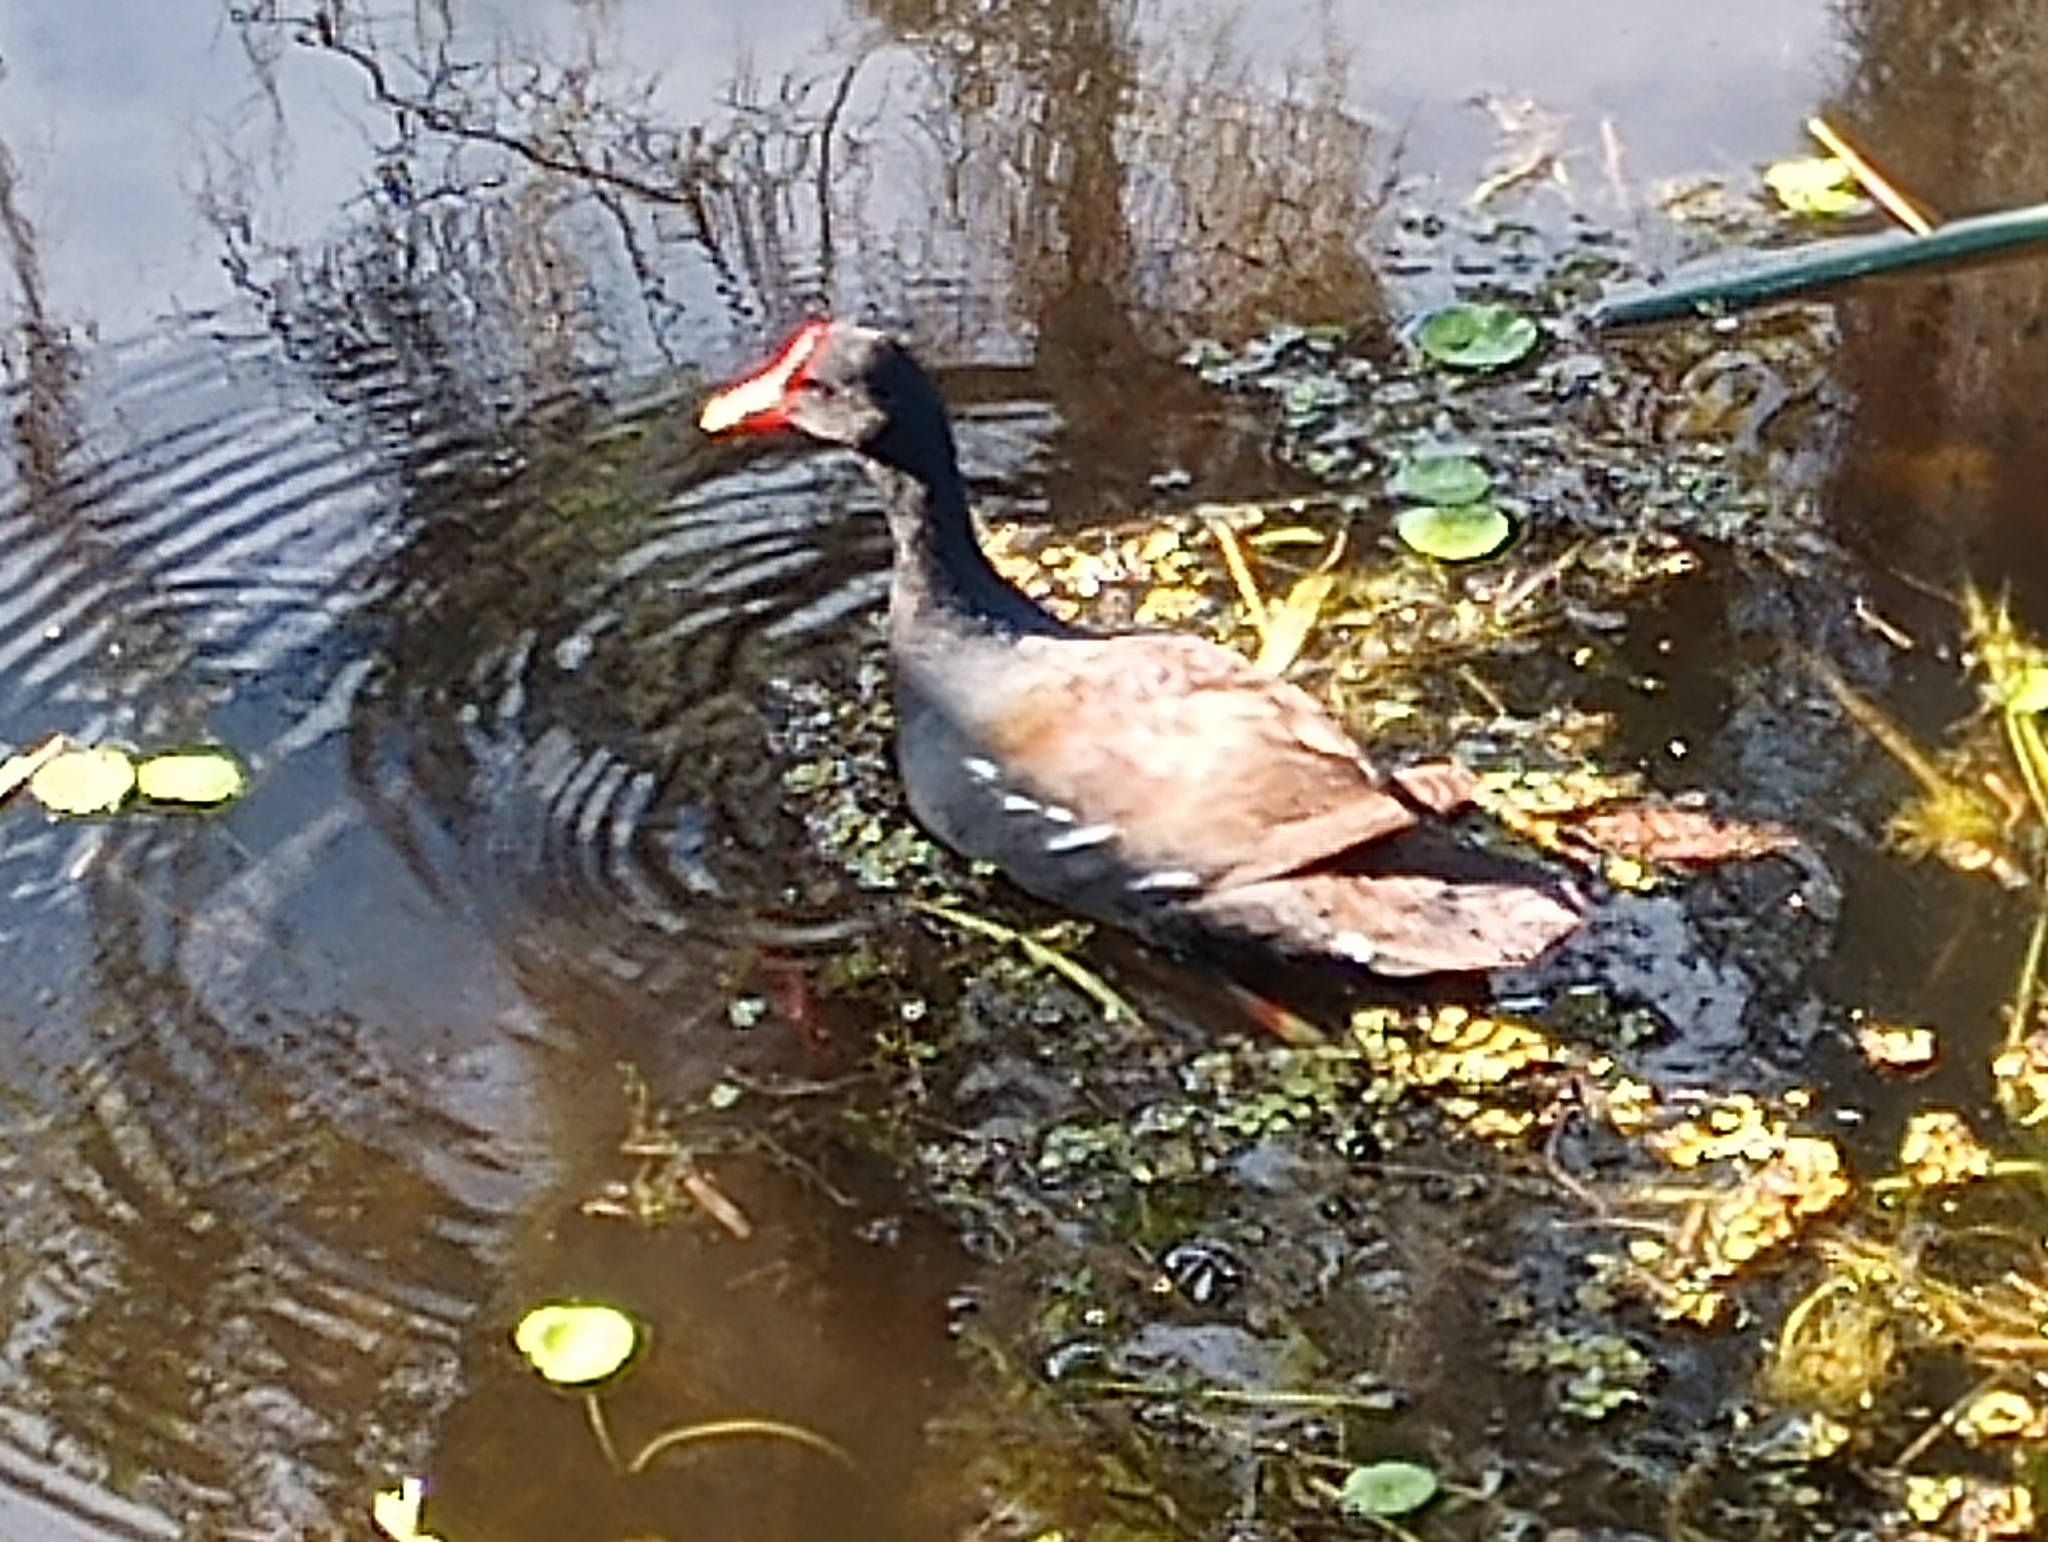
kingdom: Animalia
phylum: Chordata
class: Aves
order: Gruiformes
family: Rallidae
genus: Gallinula
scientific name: Gallinula chloropus
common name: Common moorhen
